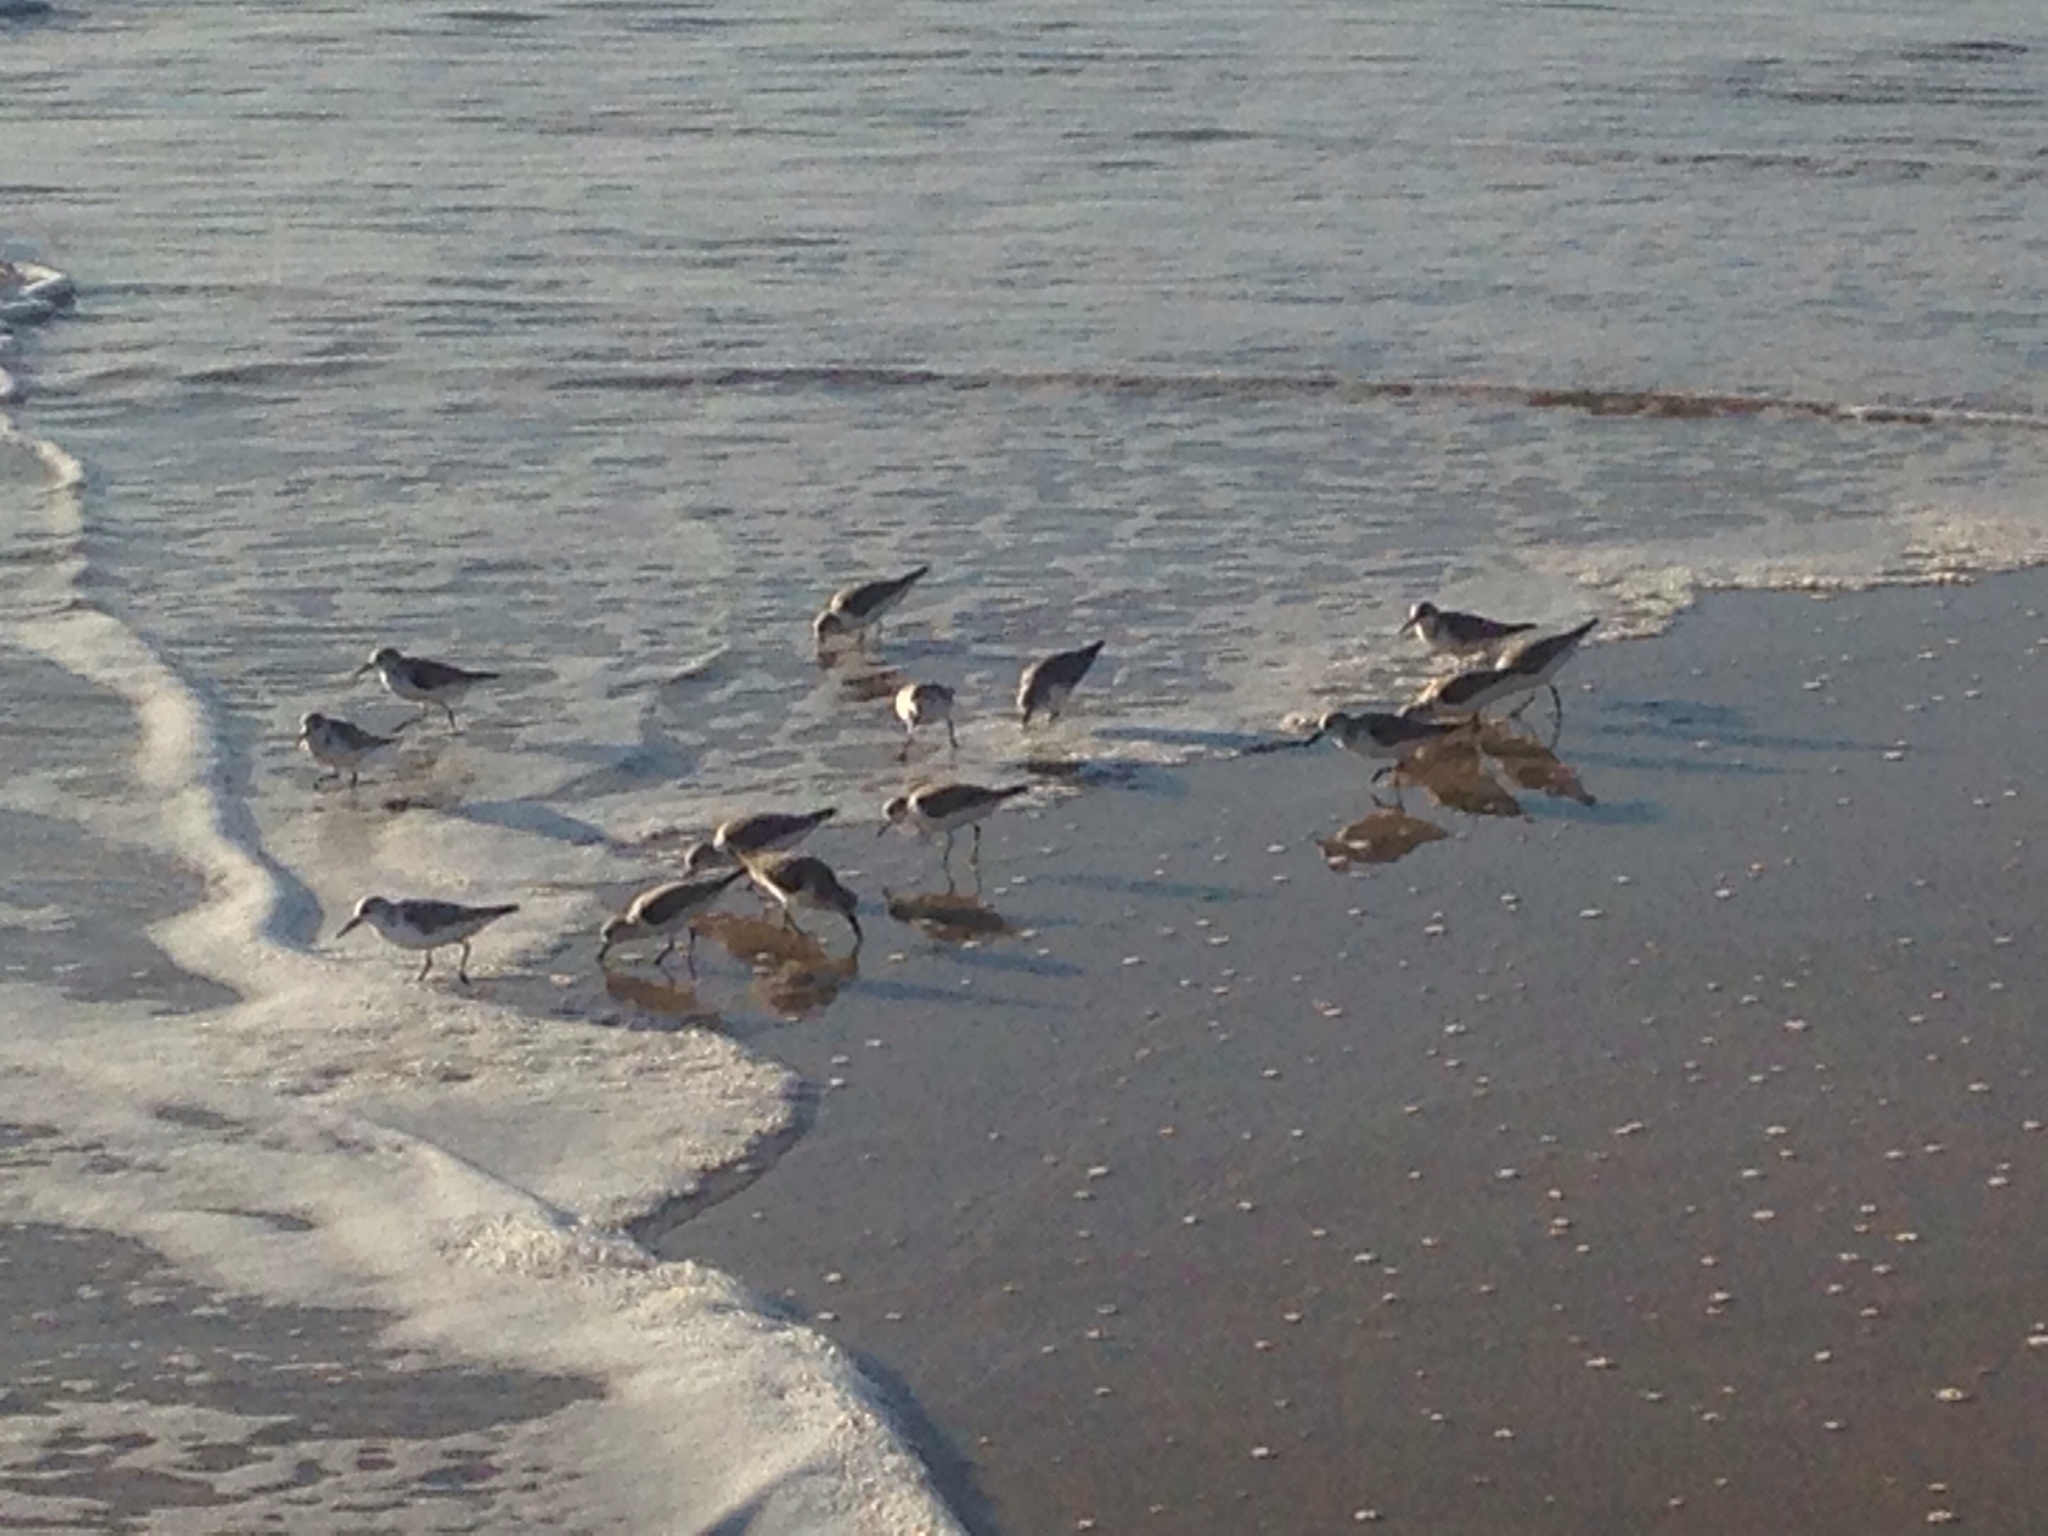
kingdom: Animalia
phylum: Chordata
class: Aves
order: Charadriiformes
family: Scolopacidae
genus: Calidris
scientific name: Calidris alba
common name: Sanderling
